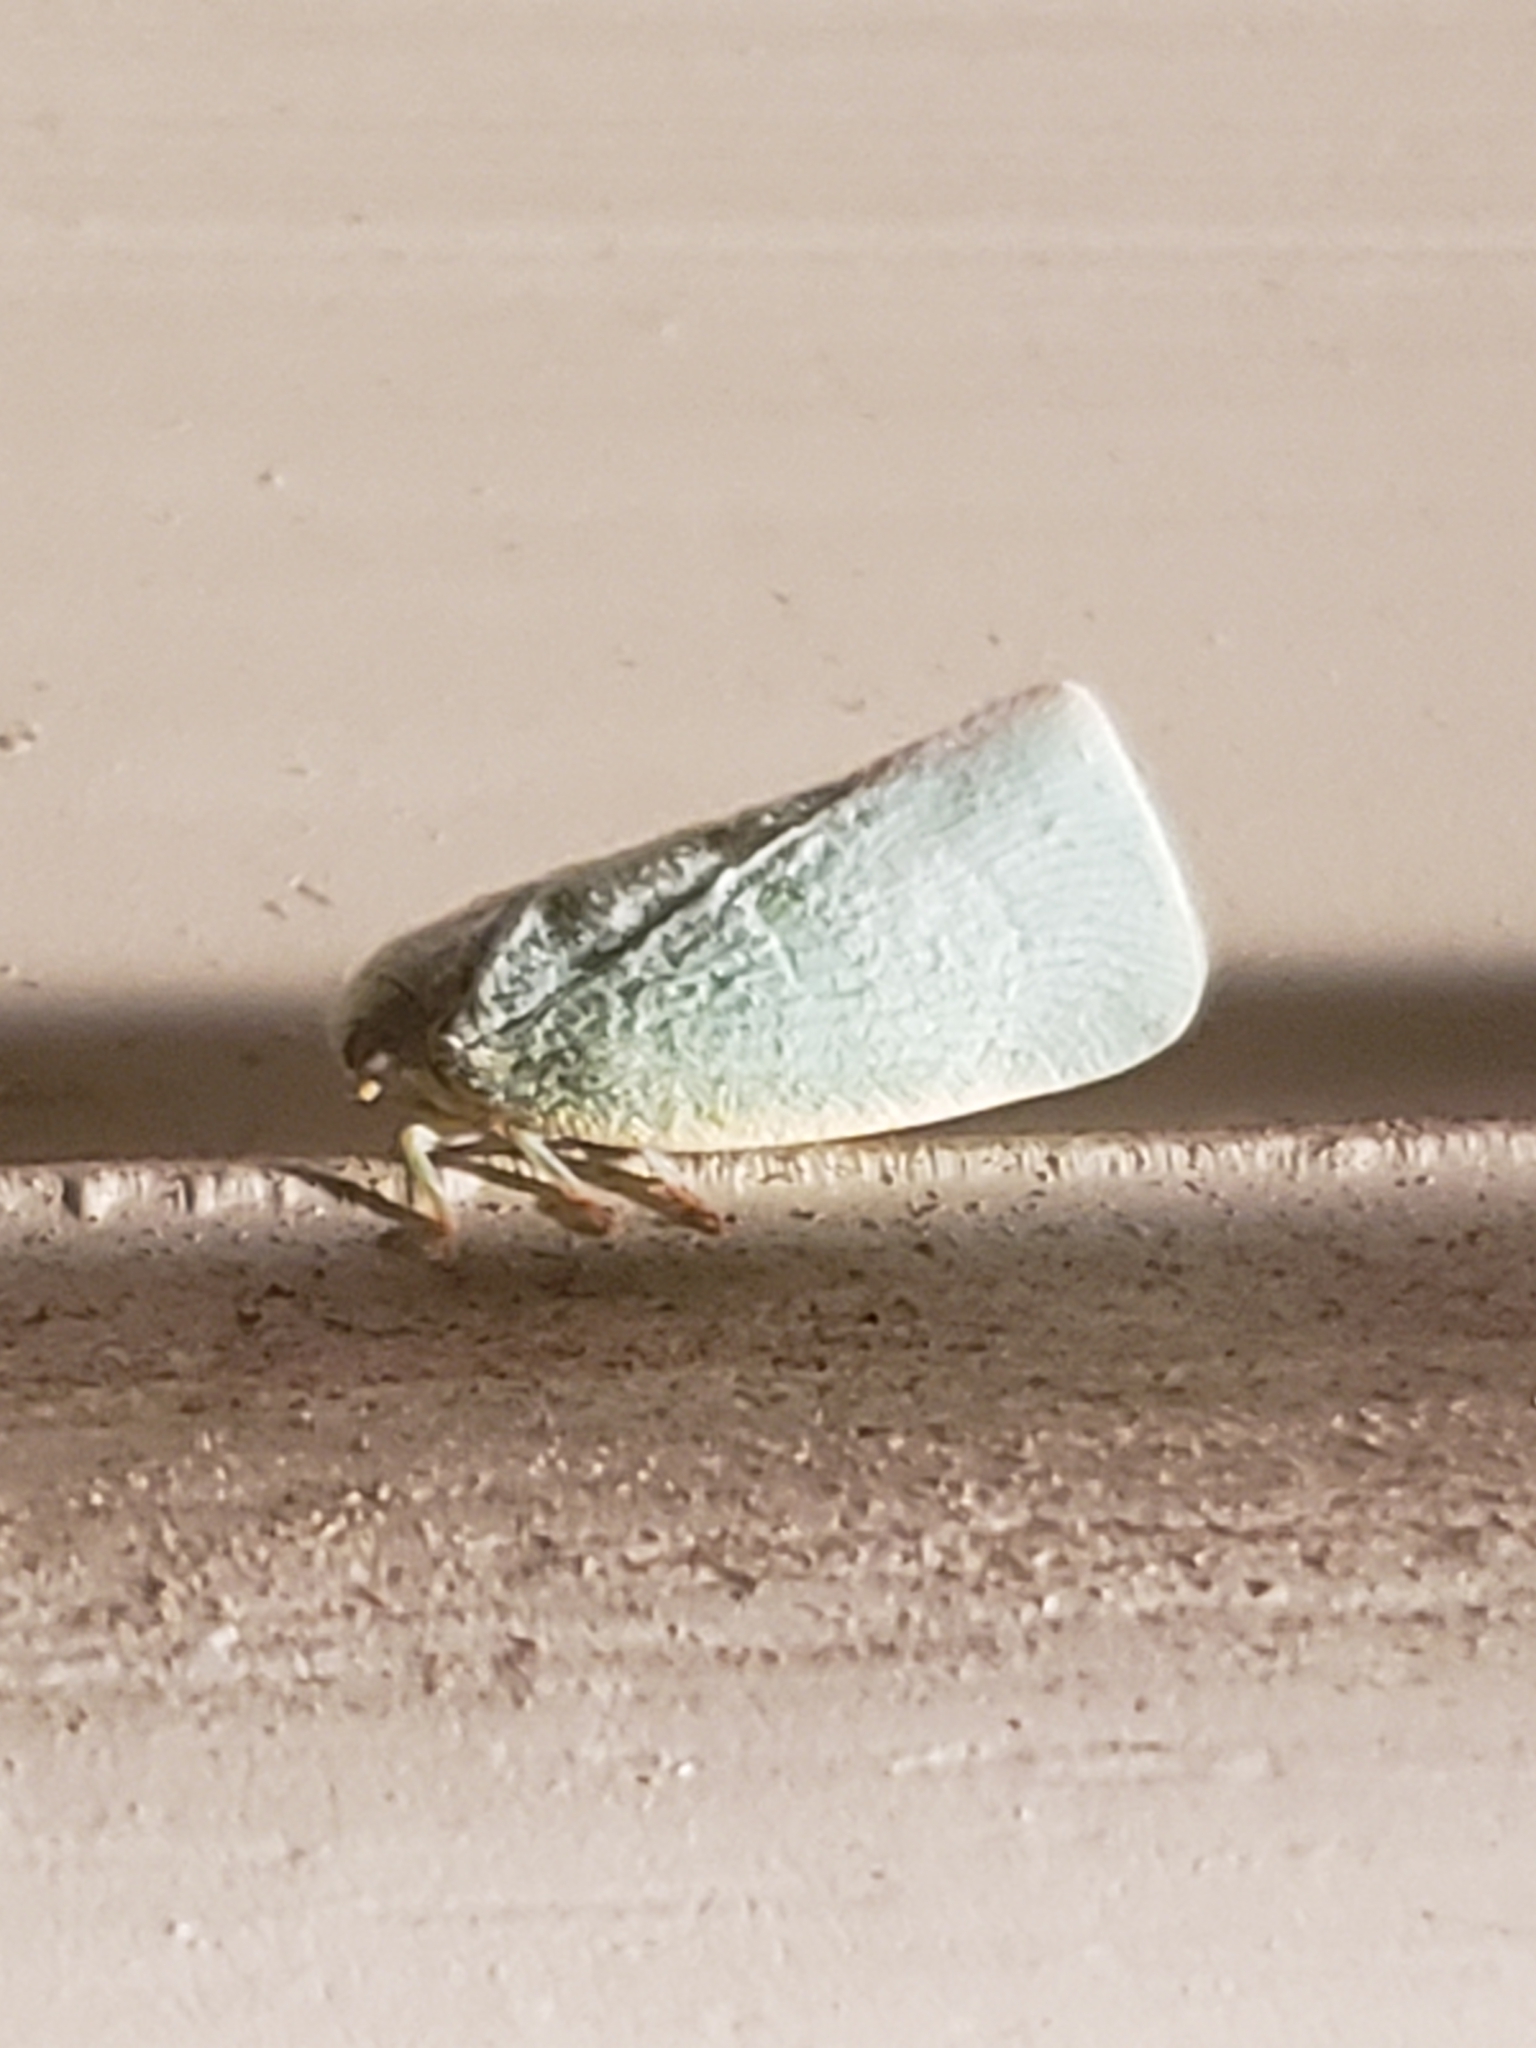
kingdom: Animalia
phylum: Arthropoda
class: Insecta
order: Hemiptera
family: Flatidae
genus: Flatormenis
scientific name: Flatormenis proxima
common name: Northern flatid planthopper
